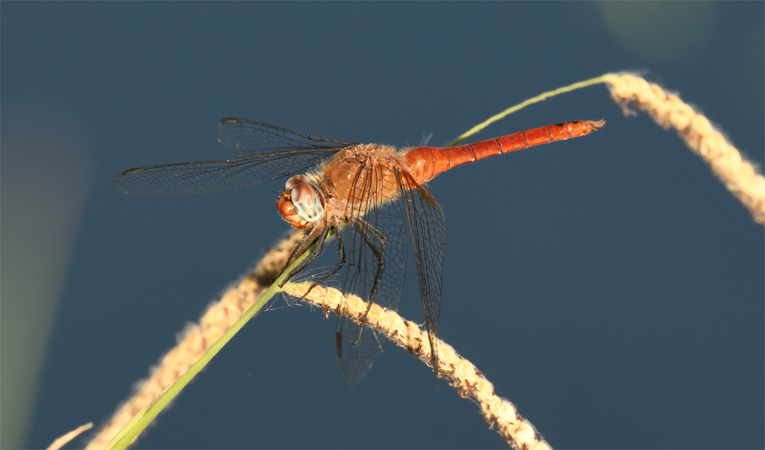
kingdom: Animalia
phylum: Arthropoda
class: Insecta
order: Odonata
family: Libellulidae
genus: Brachymesia
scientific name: Brachymesia furcata
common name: Red-taled pennant
